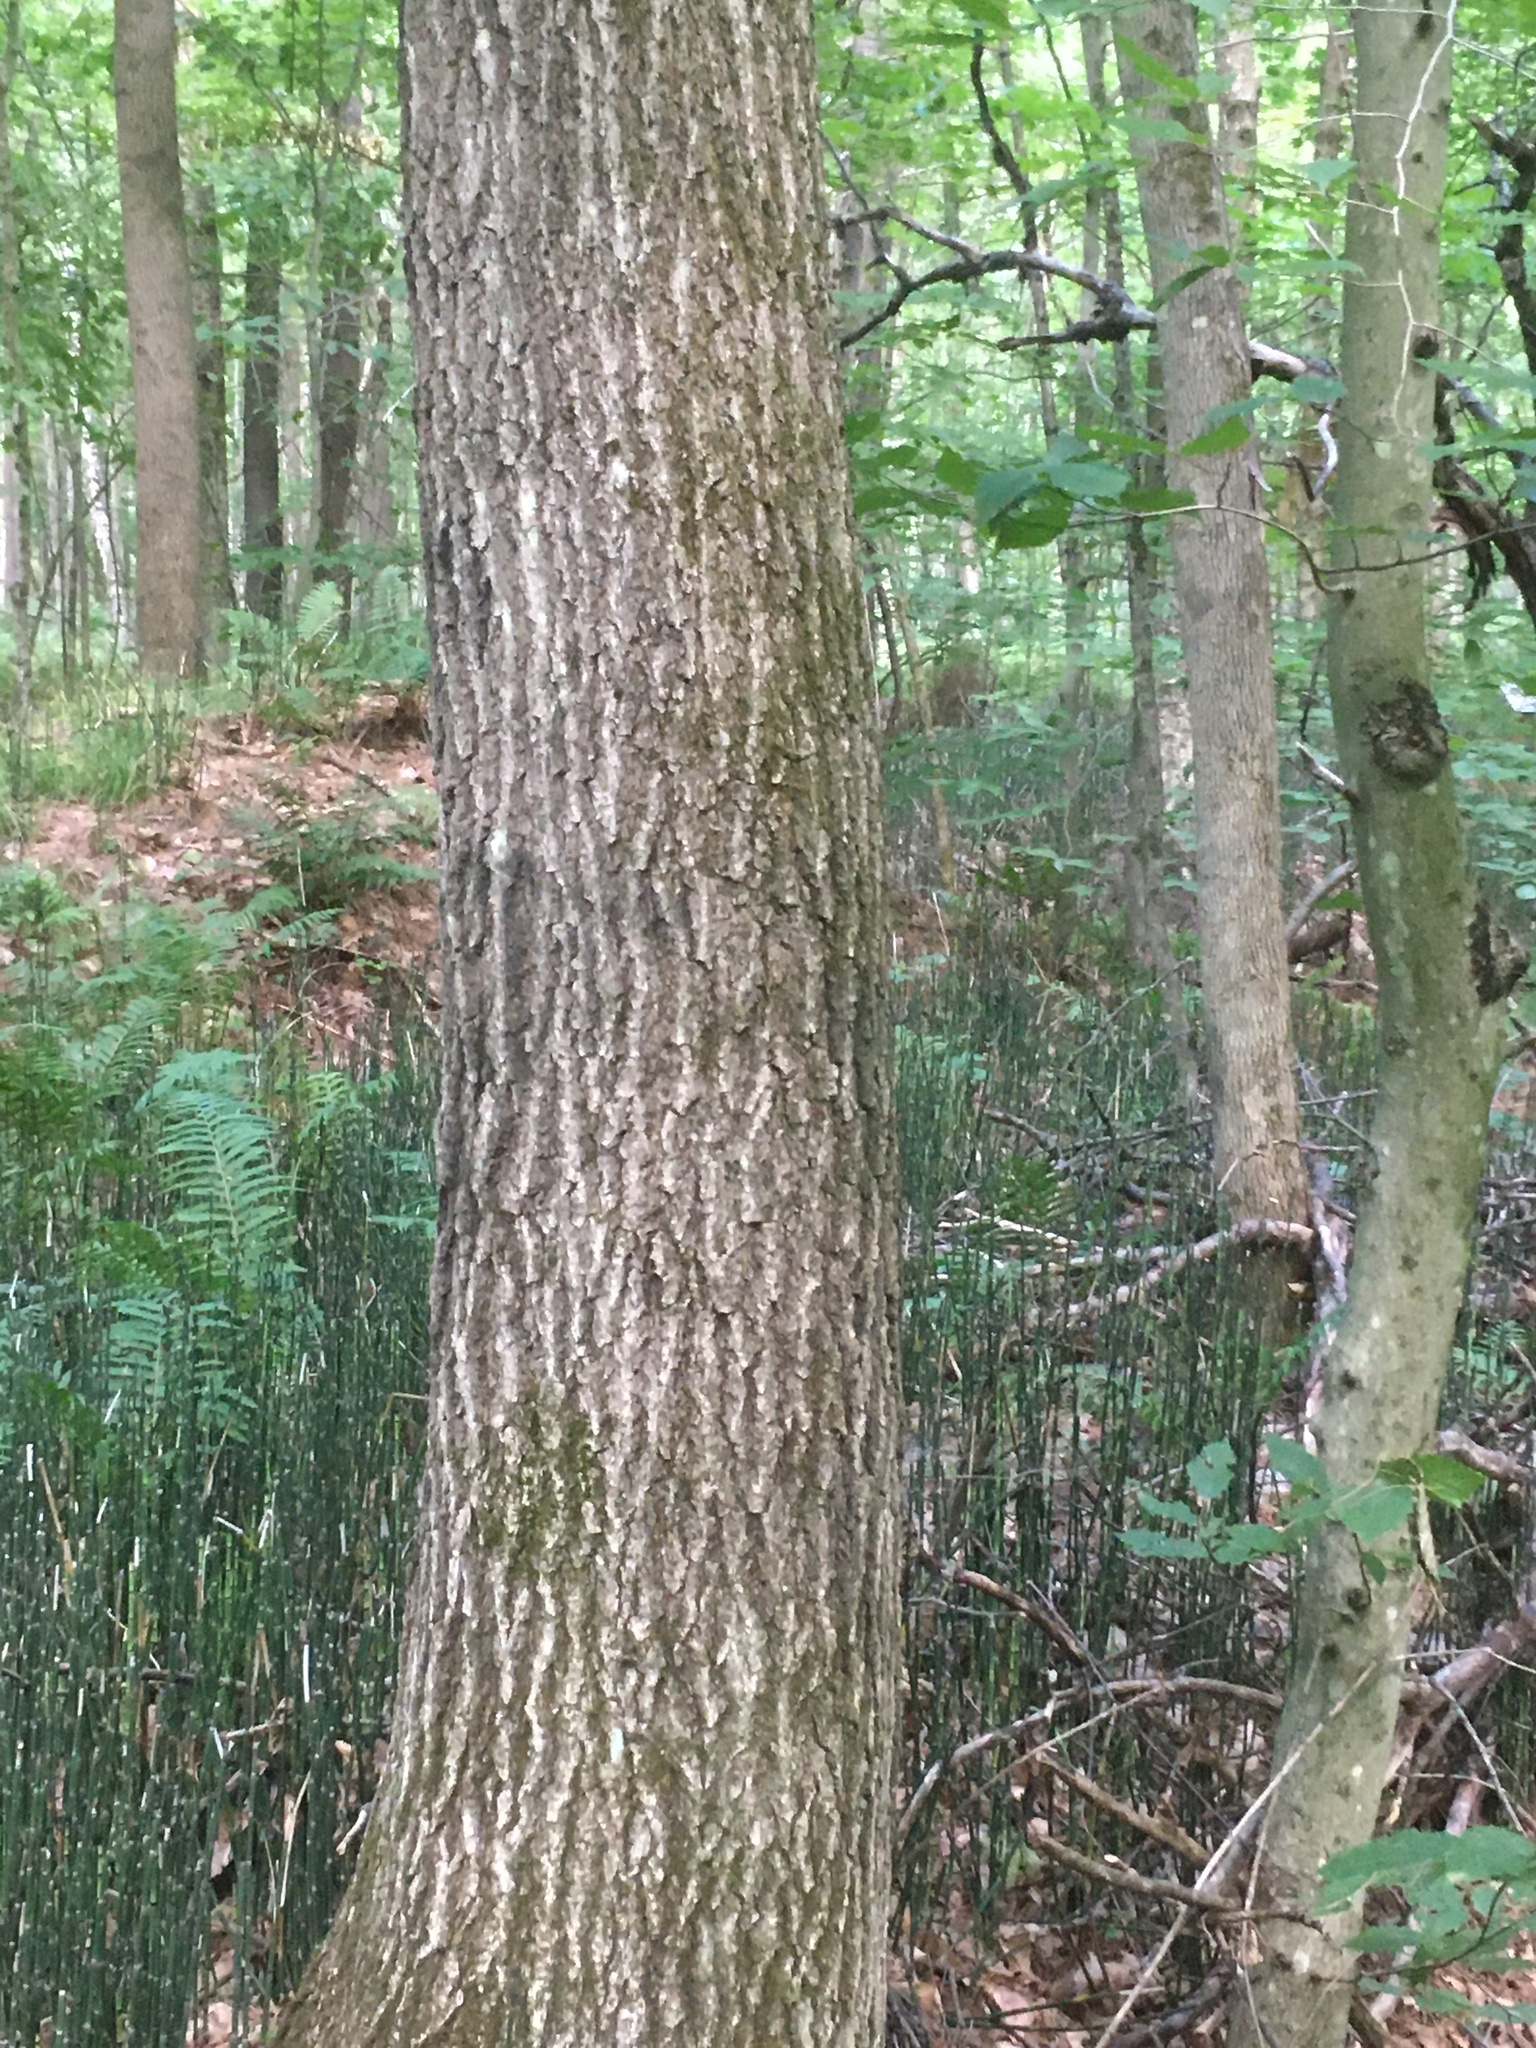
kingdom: Plantae
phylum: Tracheophyta
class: Magnoliopsida
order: Fagales
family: Fagaceae
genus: Quercus
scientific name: Quercus rubra
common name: Red oak
